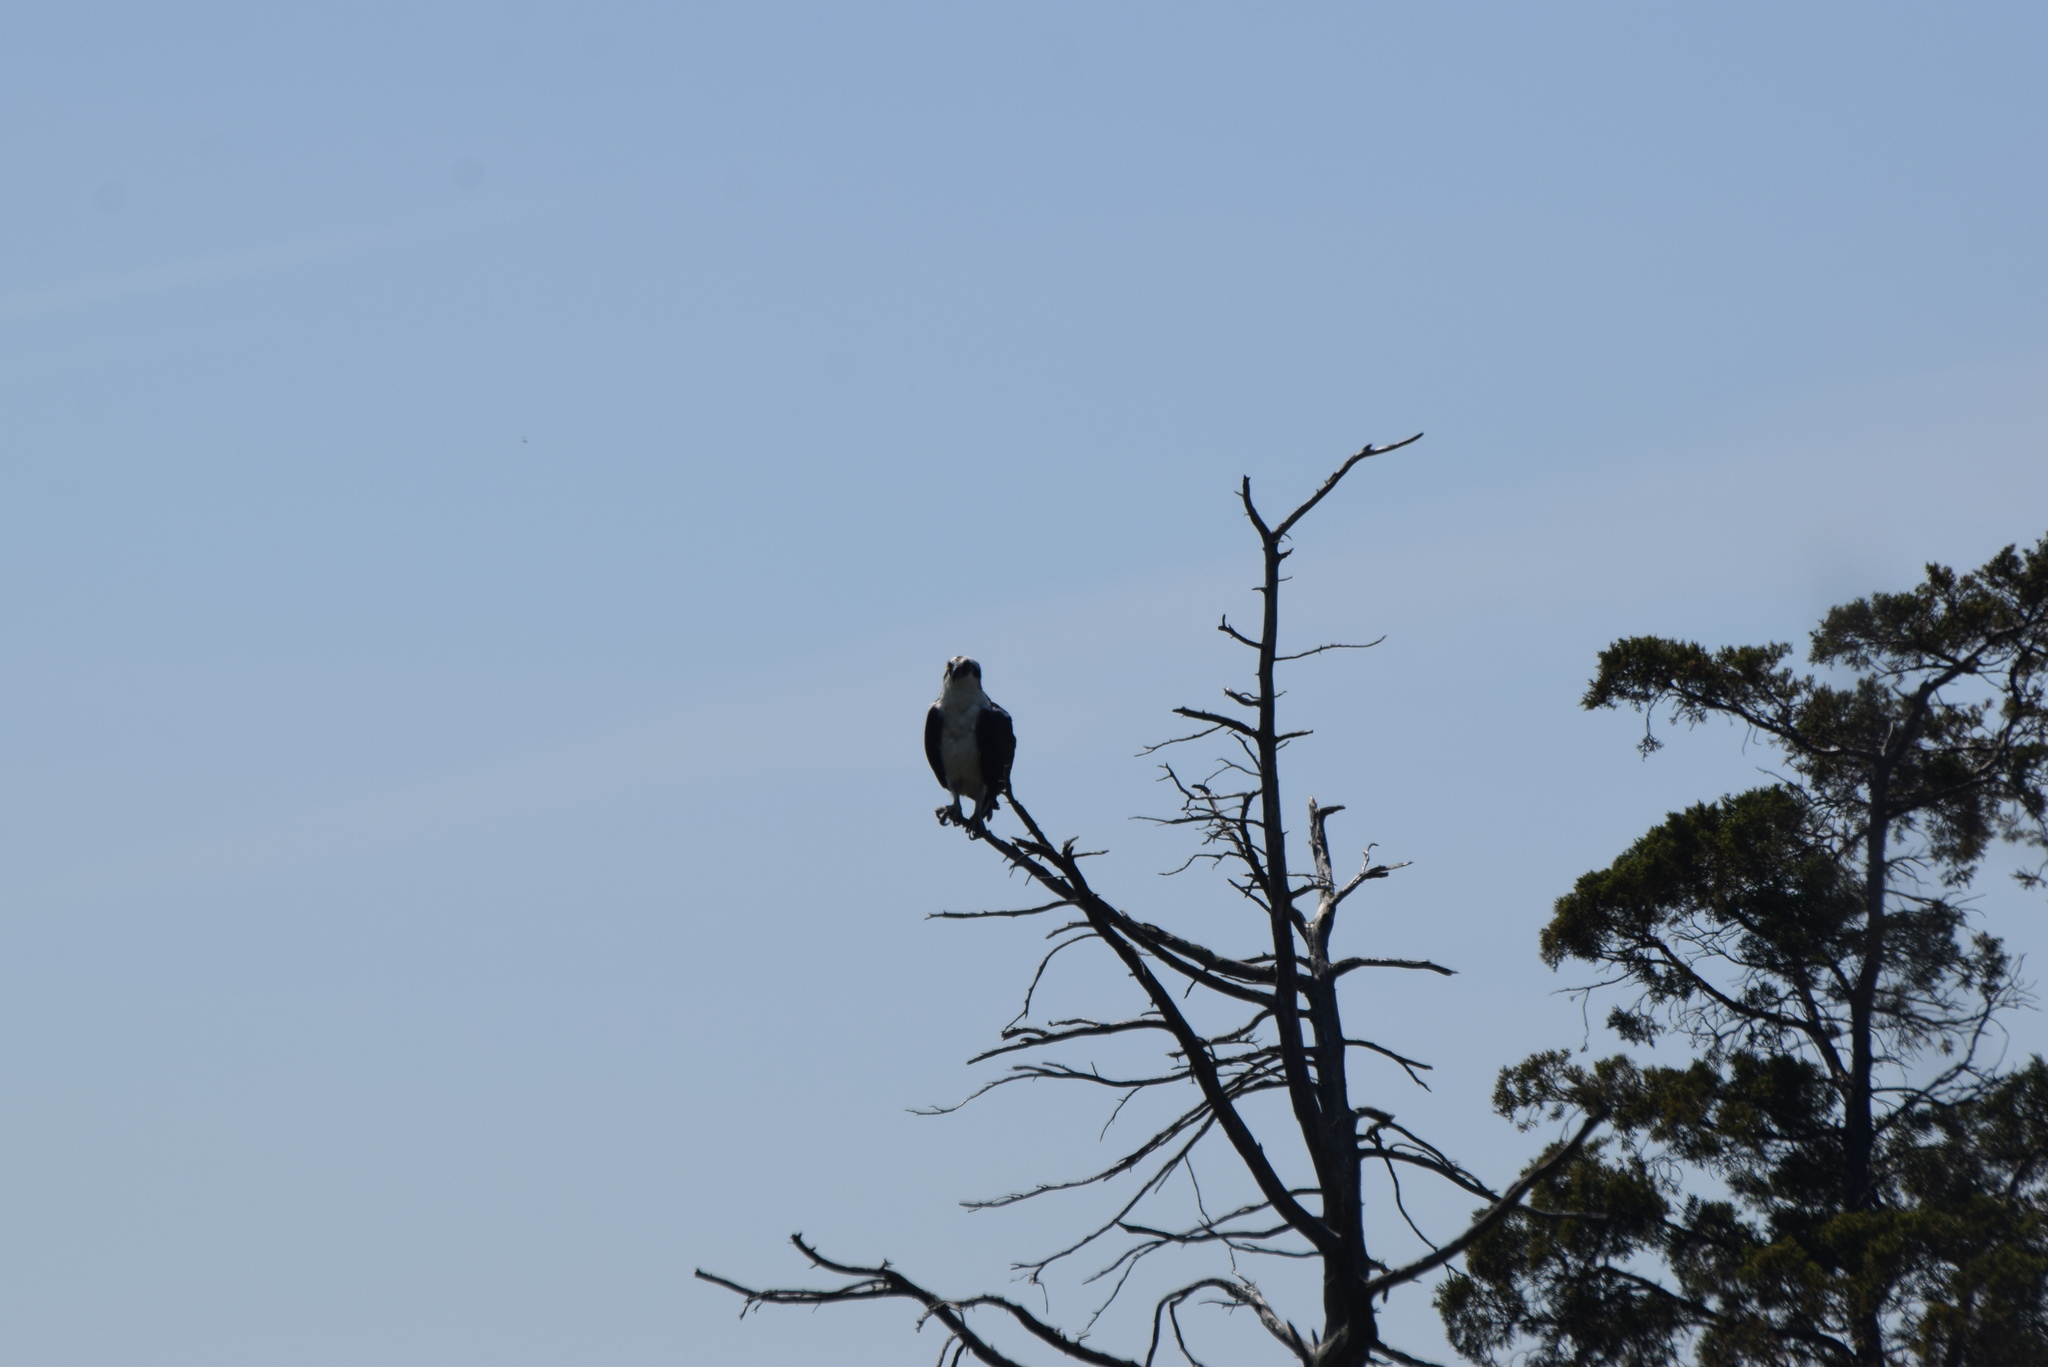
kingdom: Animalia
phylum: Chordata
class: Aves
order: Accipitriformes
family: Pandionidae
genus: Pandion
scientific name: Pandion haliaetus
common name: Osprey
